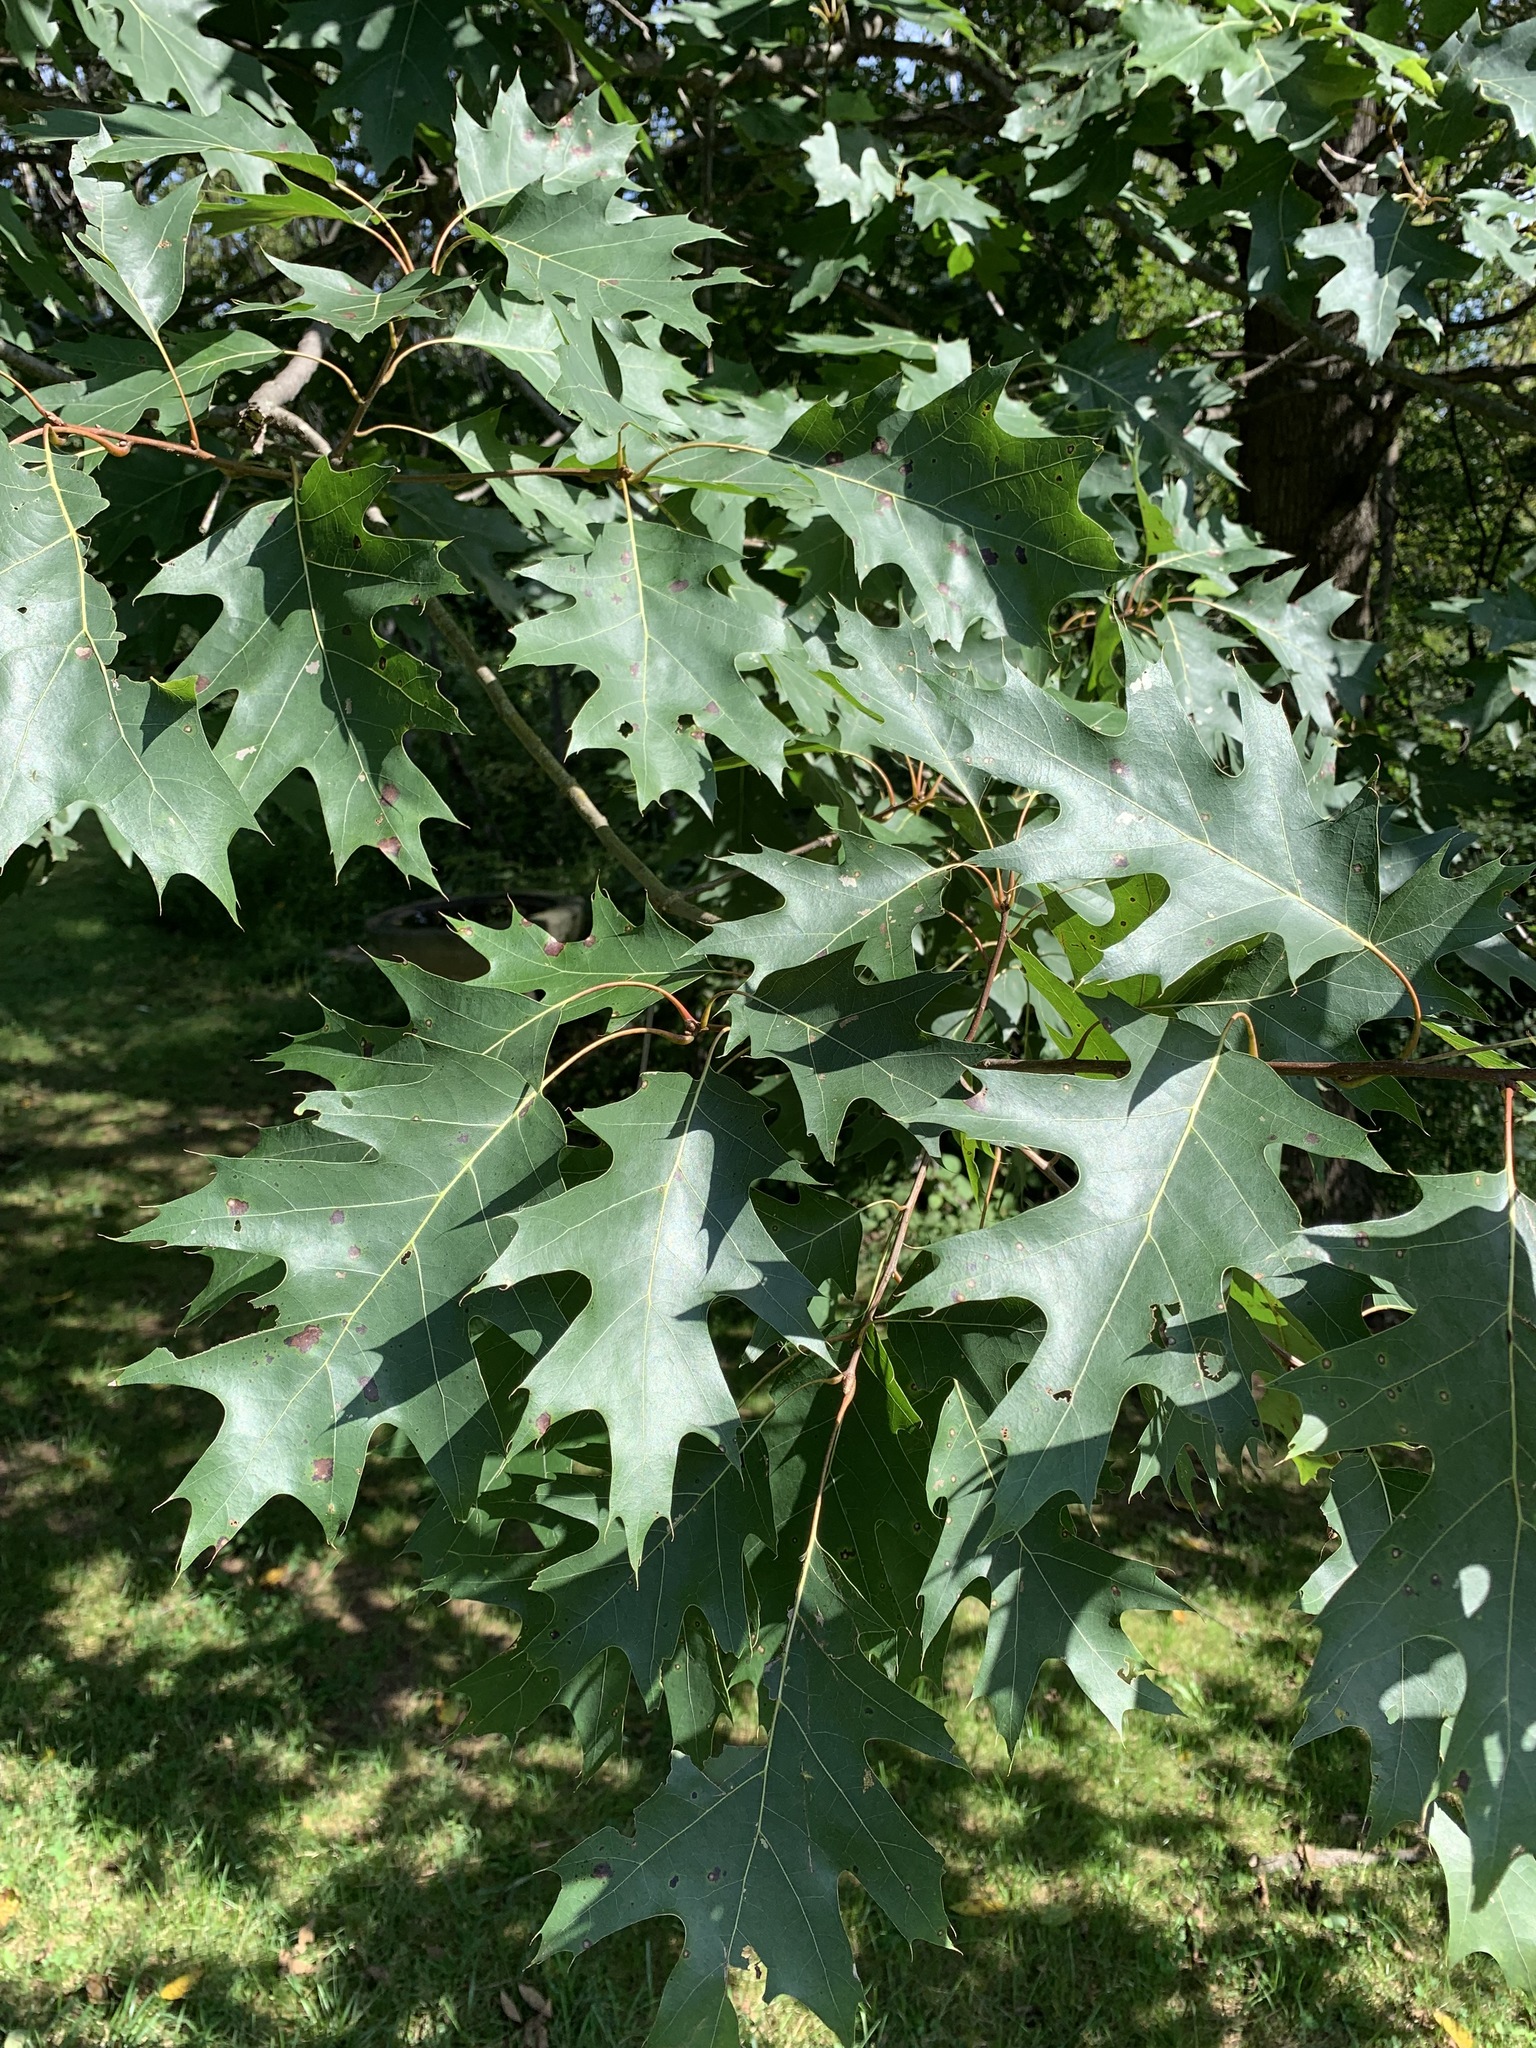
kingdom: Plantae
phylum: Tracheophyta
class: Magnoliopsida
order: Fagales
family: Fagaceae
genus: Quercus
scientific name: Quercus rubra
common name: Red oak
